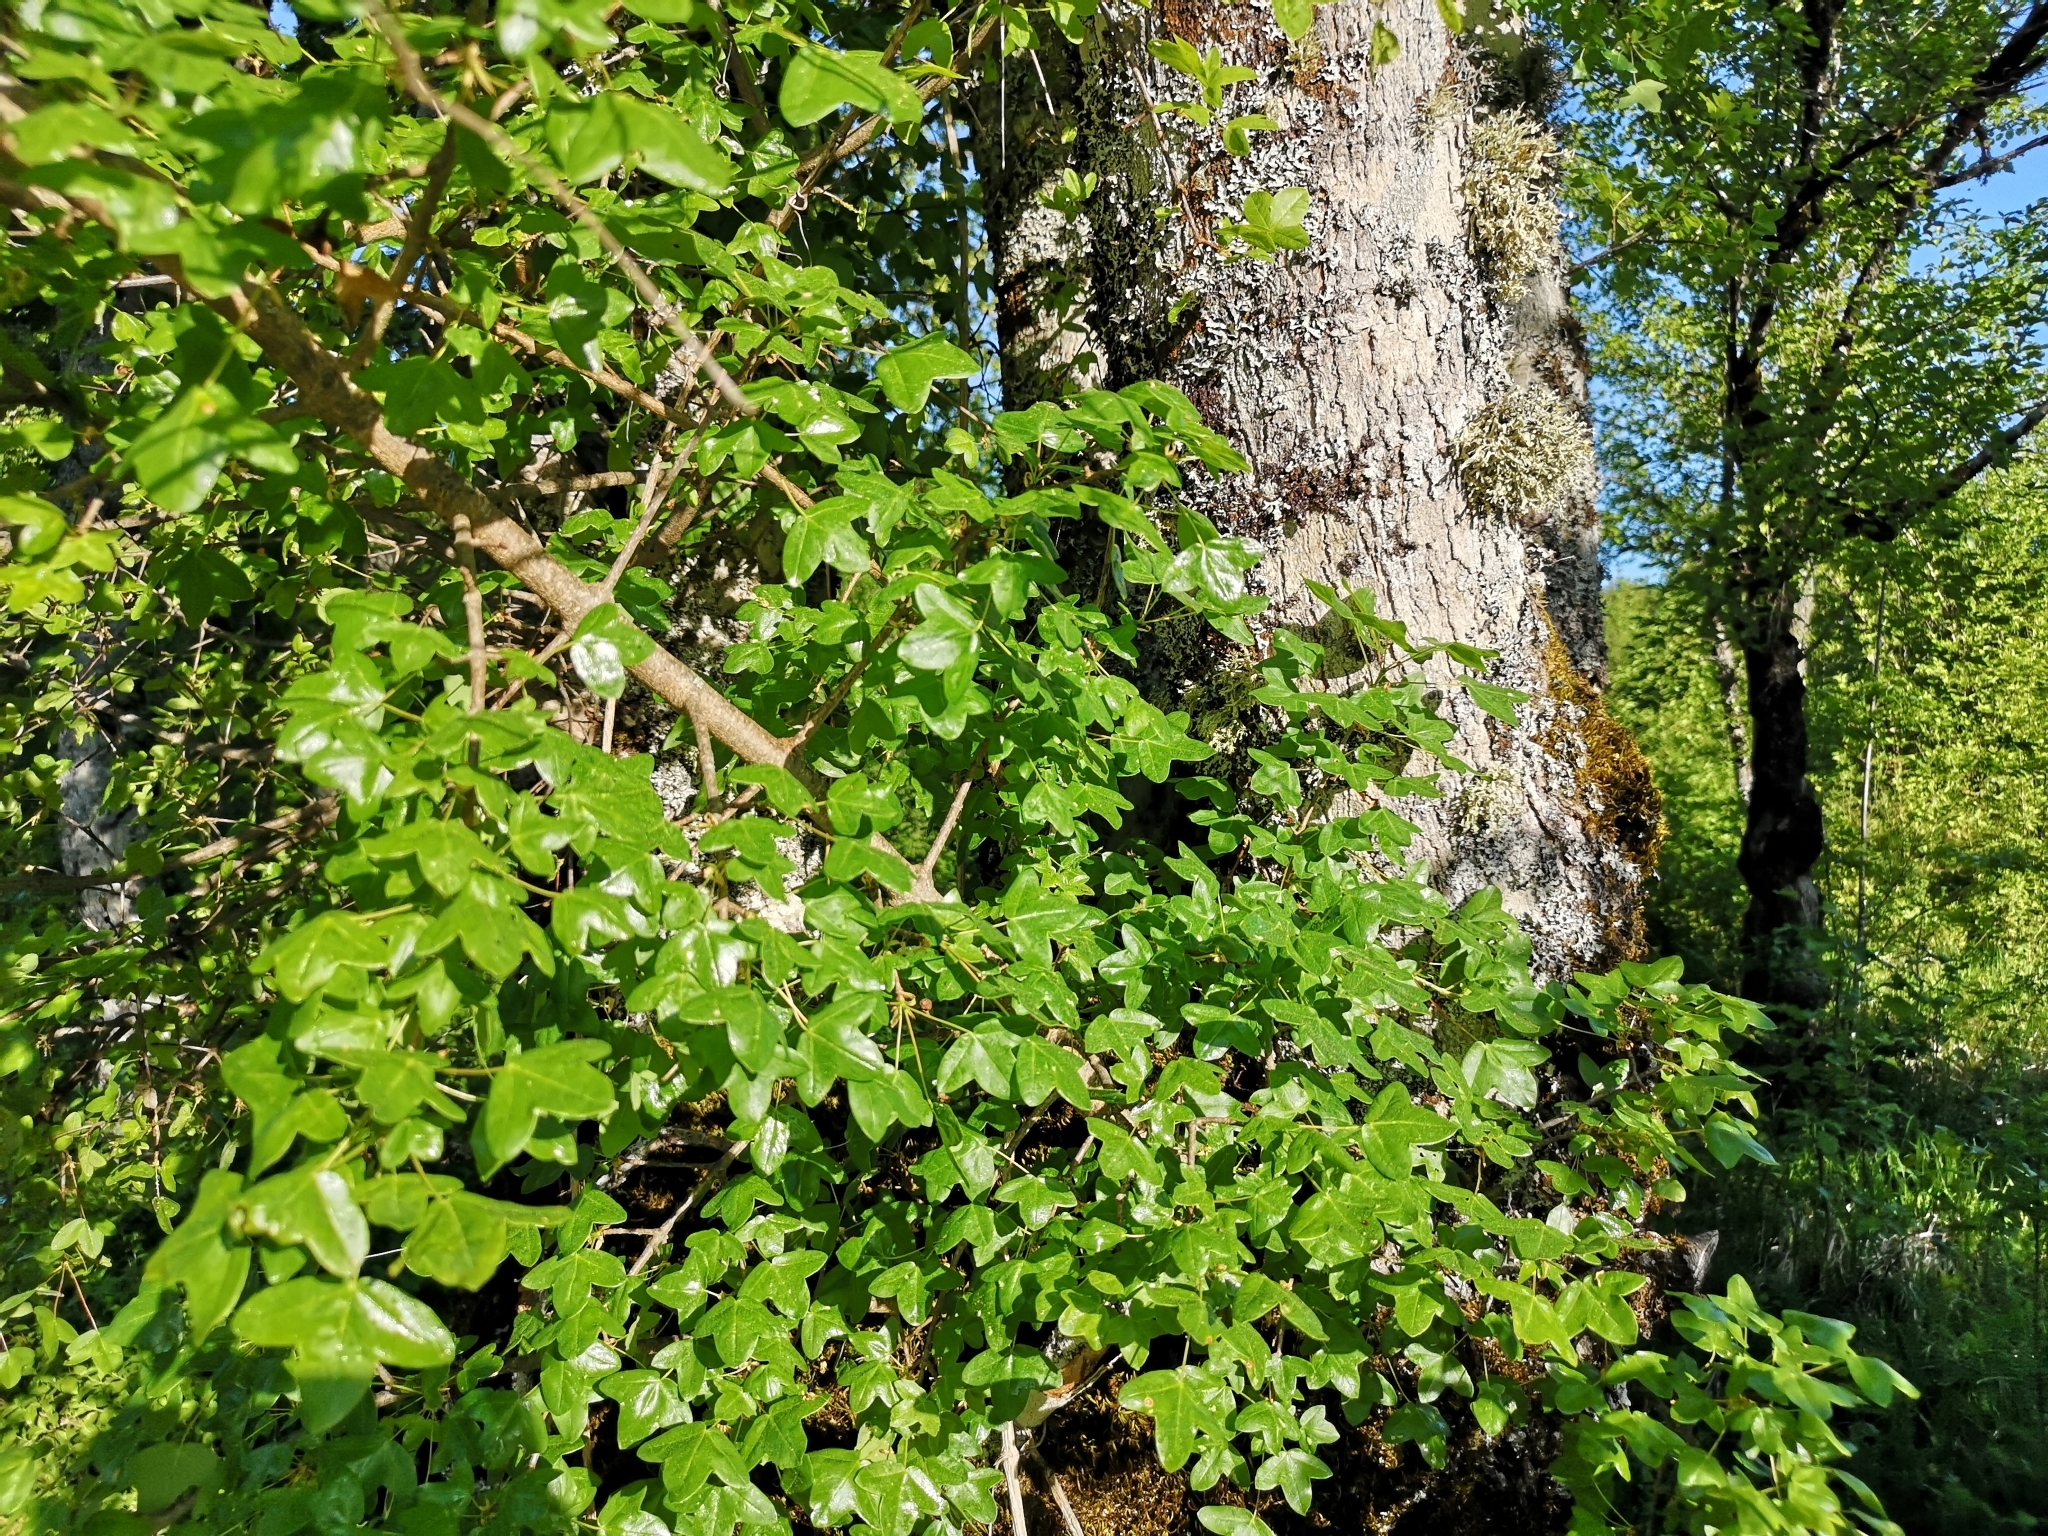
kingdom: Plantae
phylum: Tracheophyta
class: Magnoliopsida
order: Sapindales
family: Sapindaceae
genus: Acer
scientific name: Acer monspessulanum
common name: Montpellier maple
